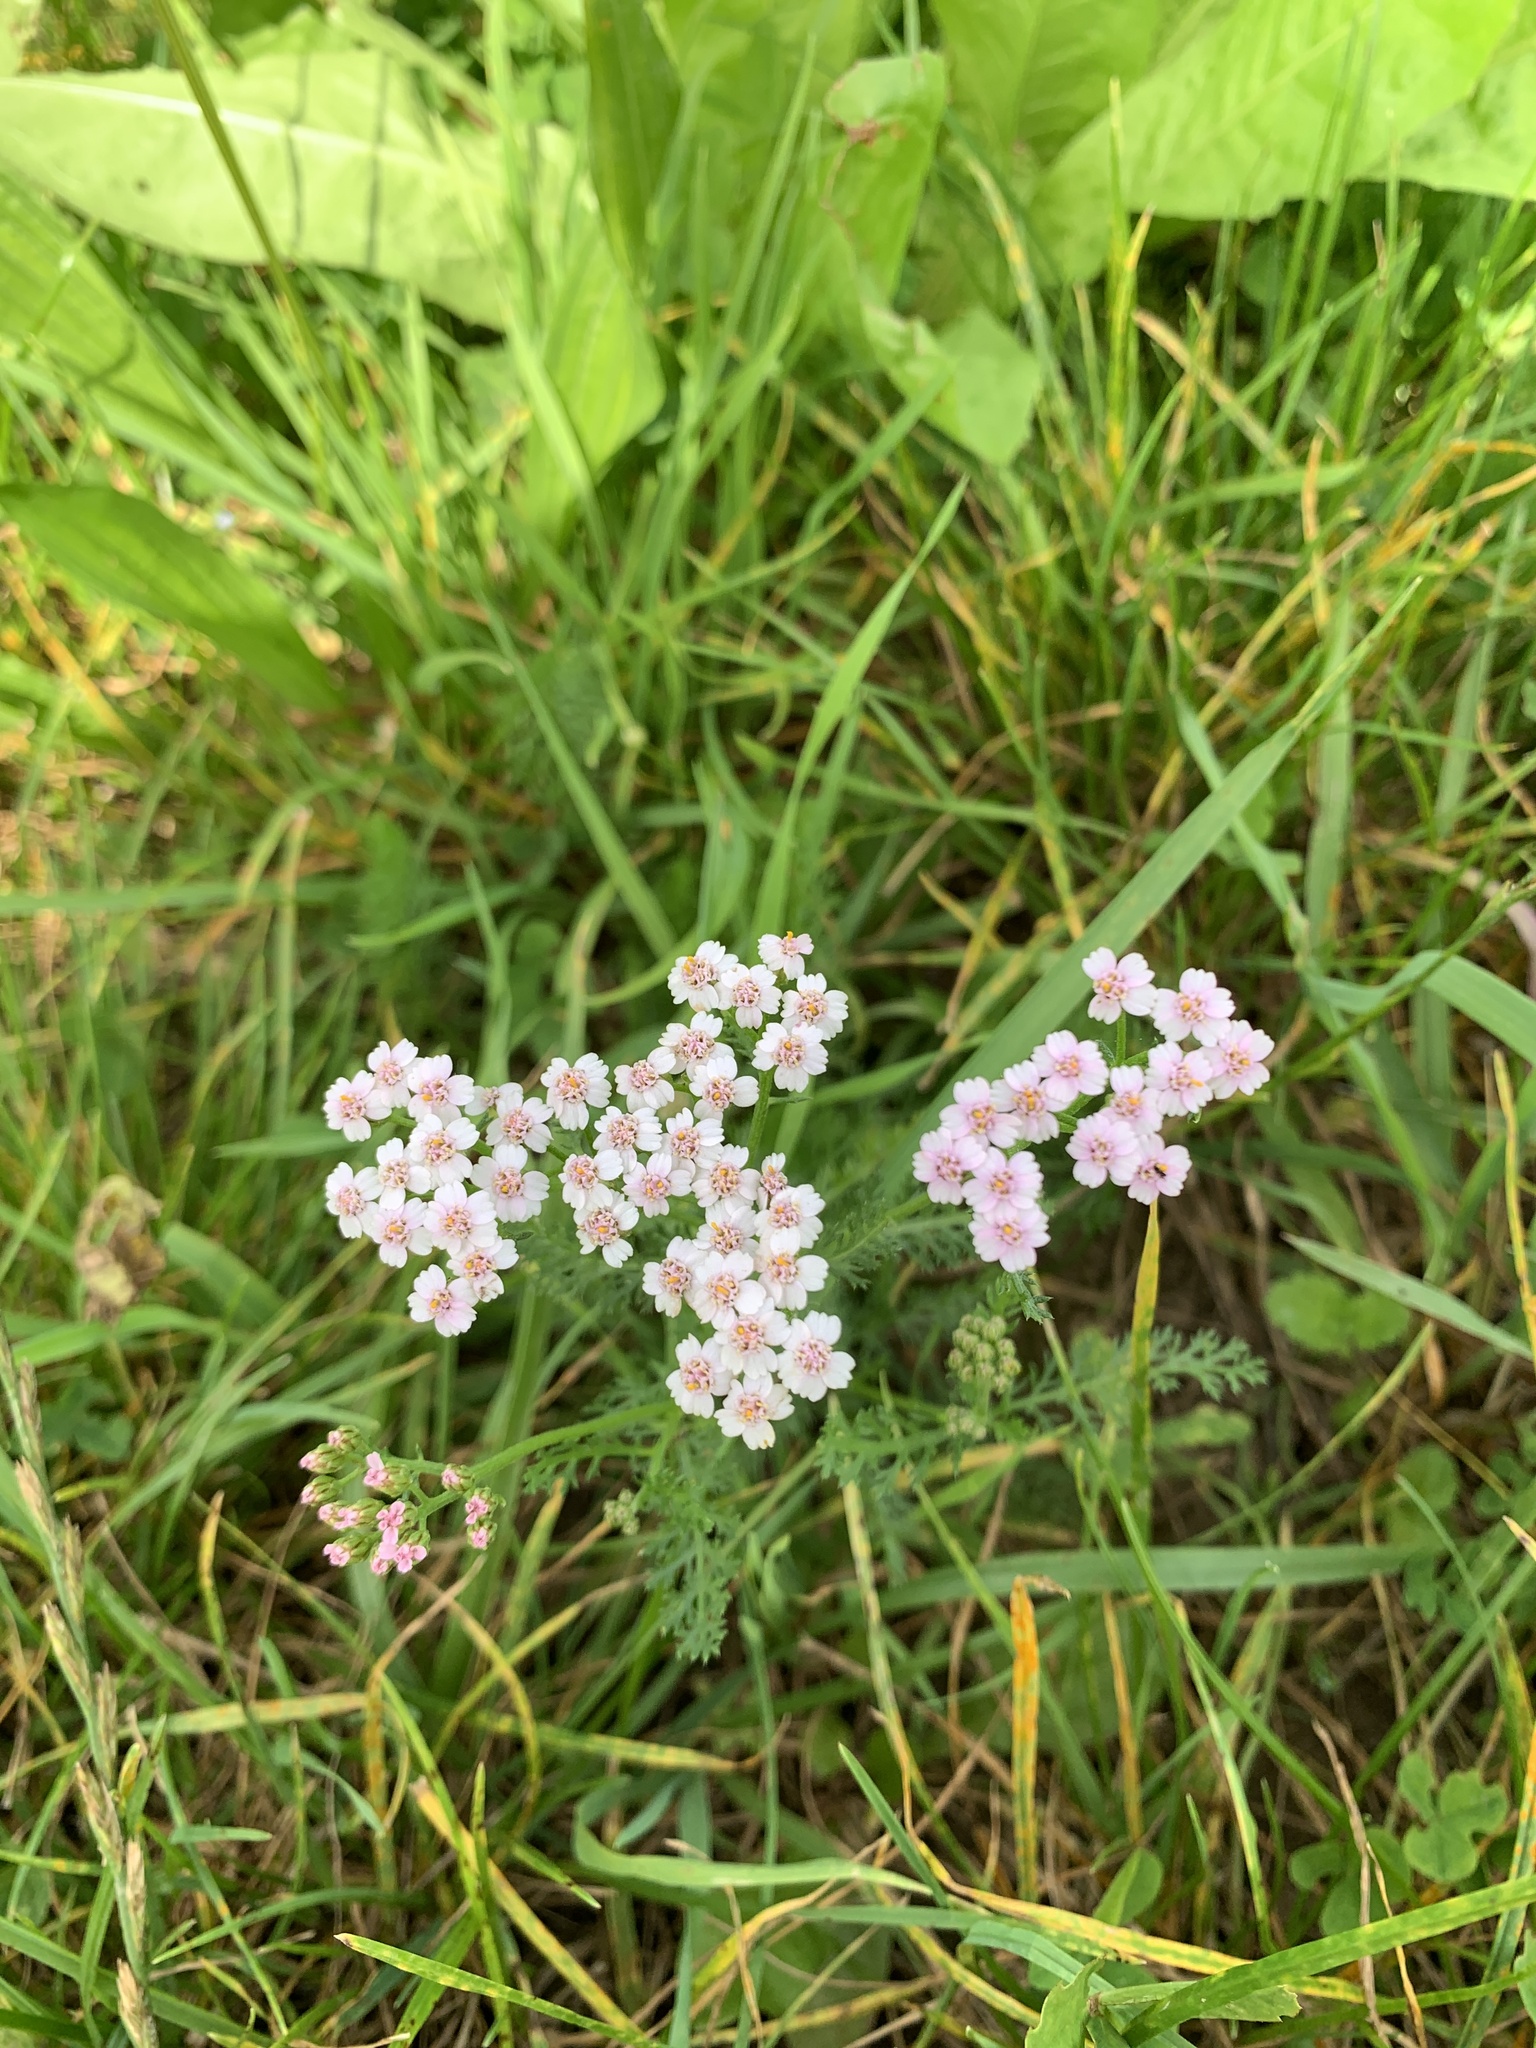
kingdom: Plantae
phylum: Tracheophyta
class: Magnoliopsida
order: Asterales
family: Asteraceae
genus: Achillea
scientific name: Achillea millefolium
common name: Yarrow
